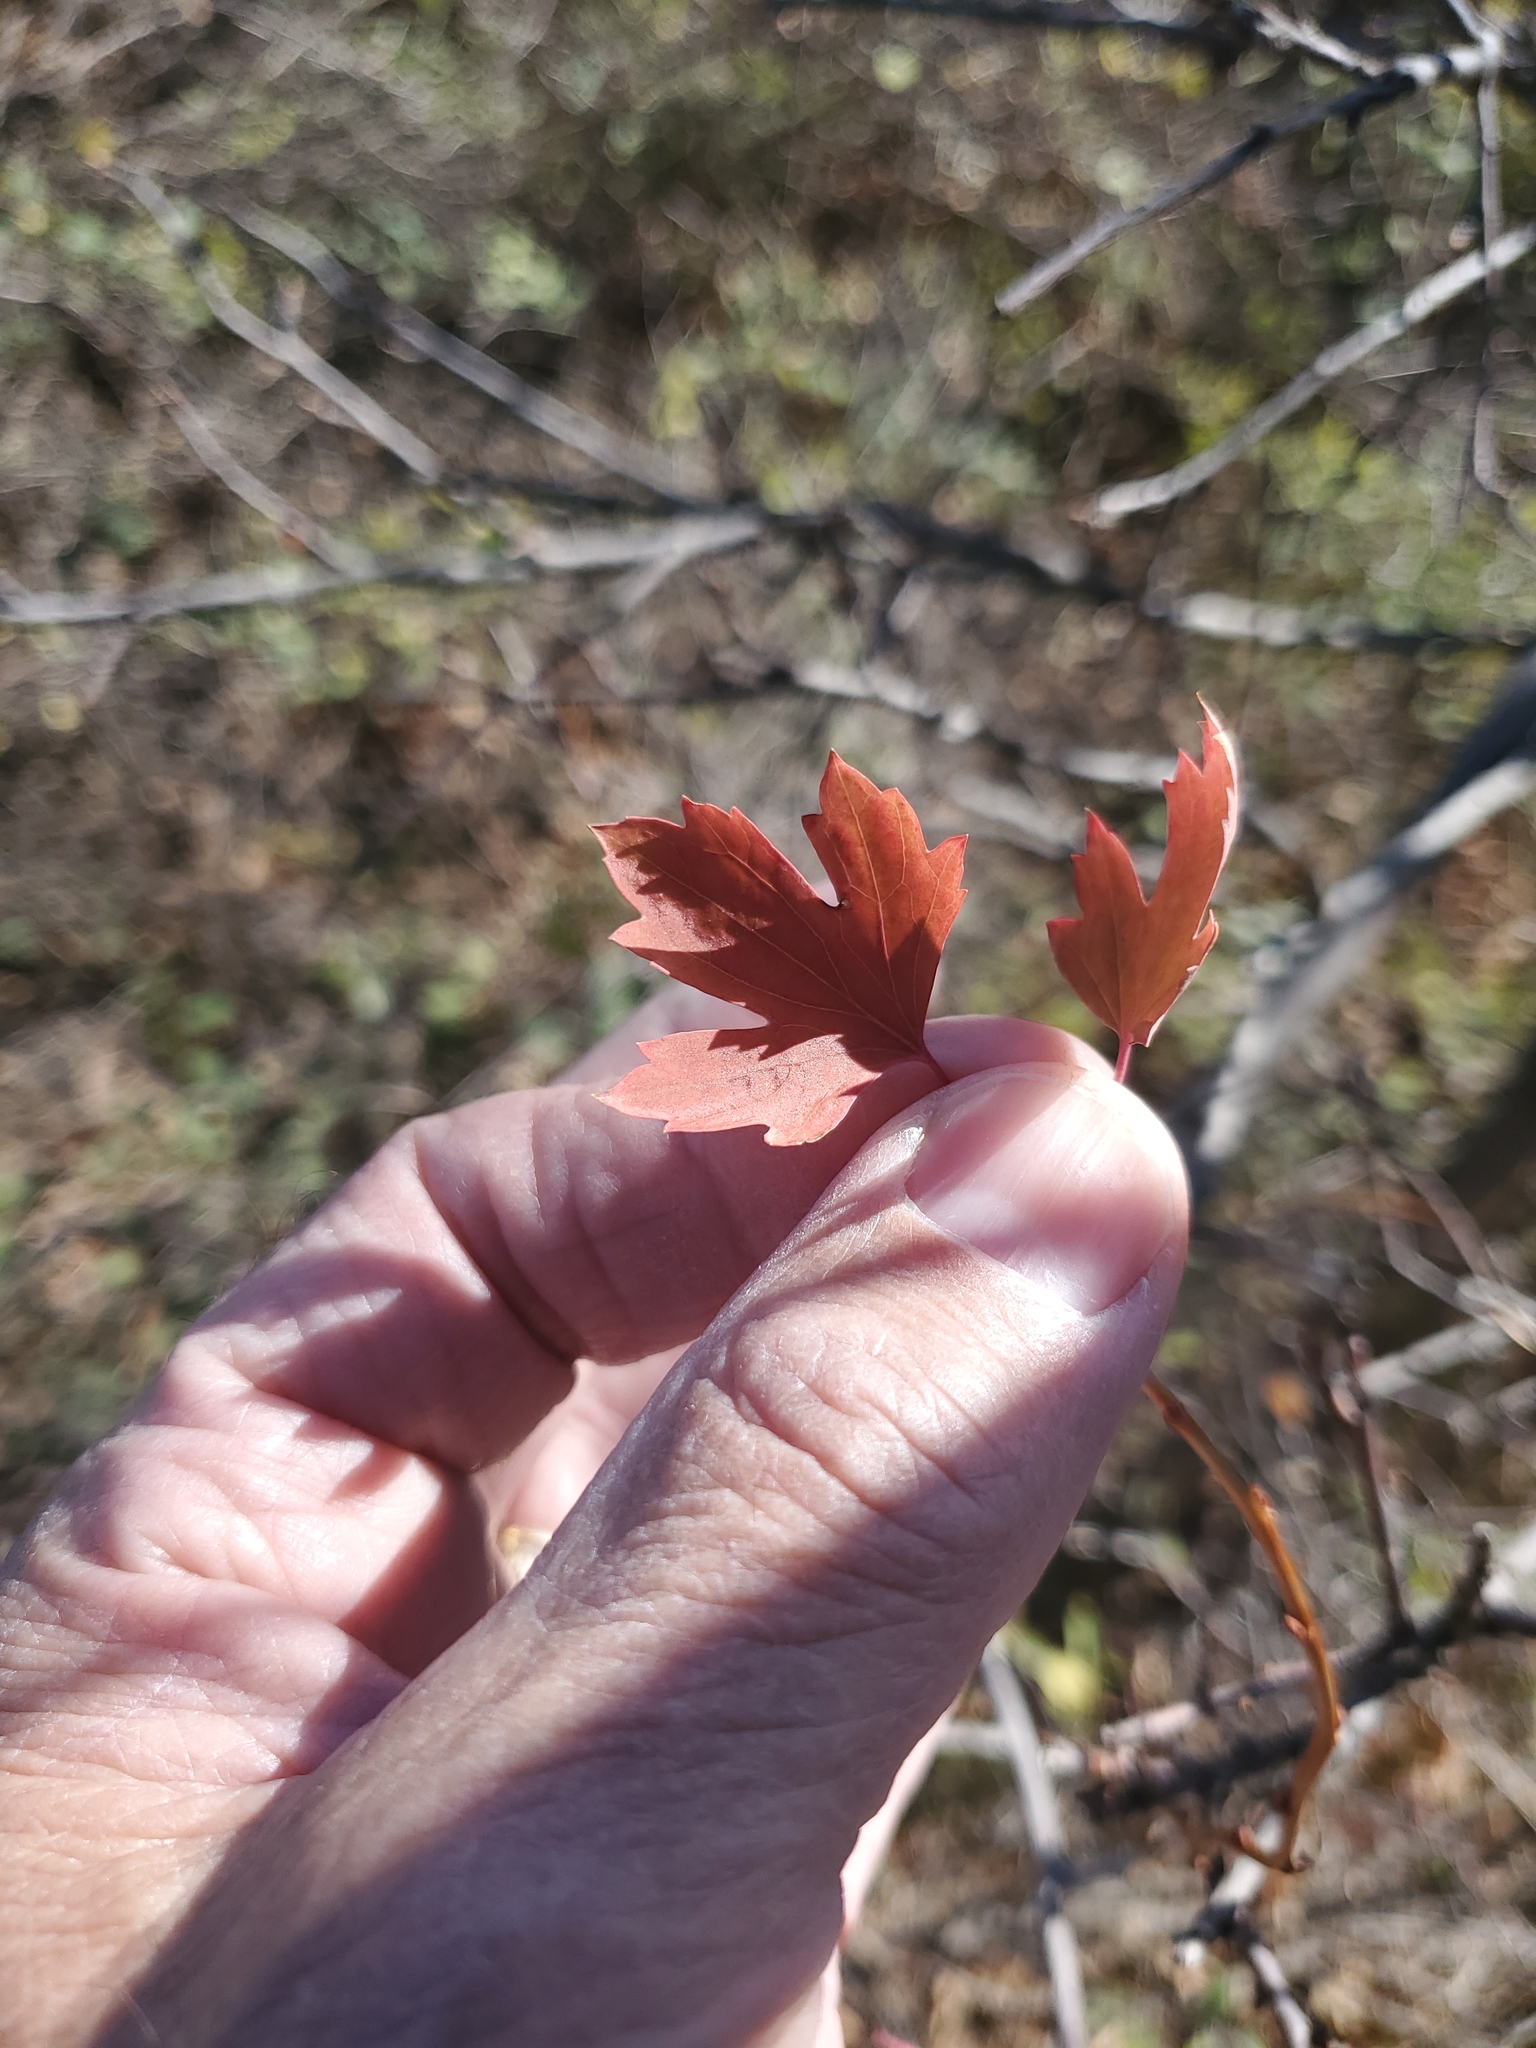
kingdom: Plantae
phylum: Tracheophyta
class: Magnoliopsida
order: Saxifragales
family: Grossulariaceae
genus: Ribes
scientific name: Ribes aureum
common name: Golden currant
